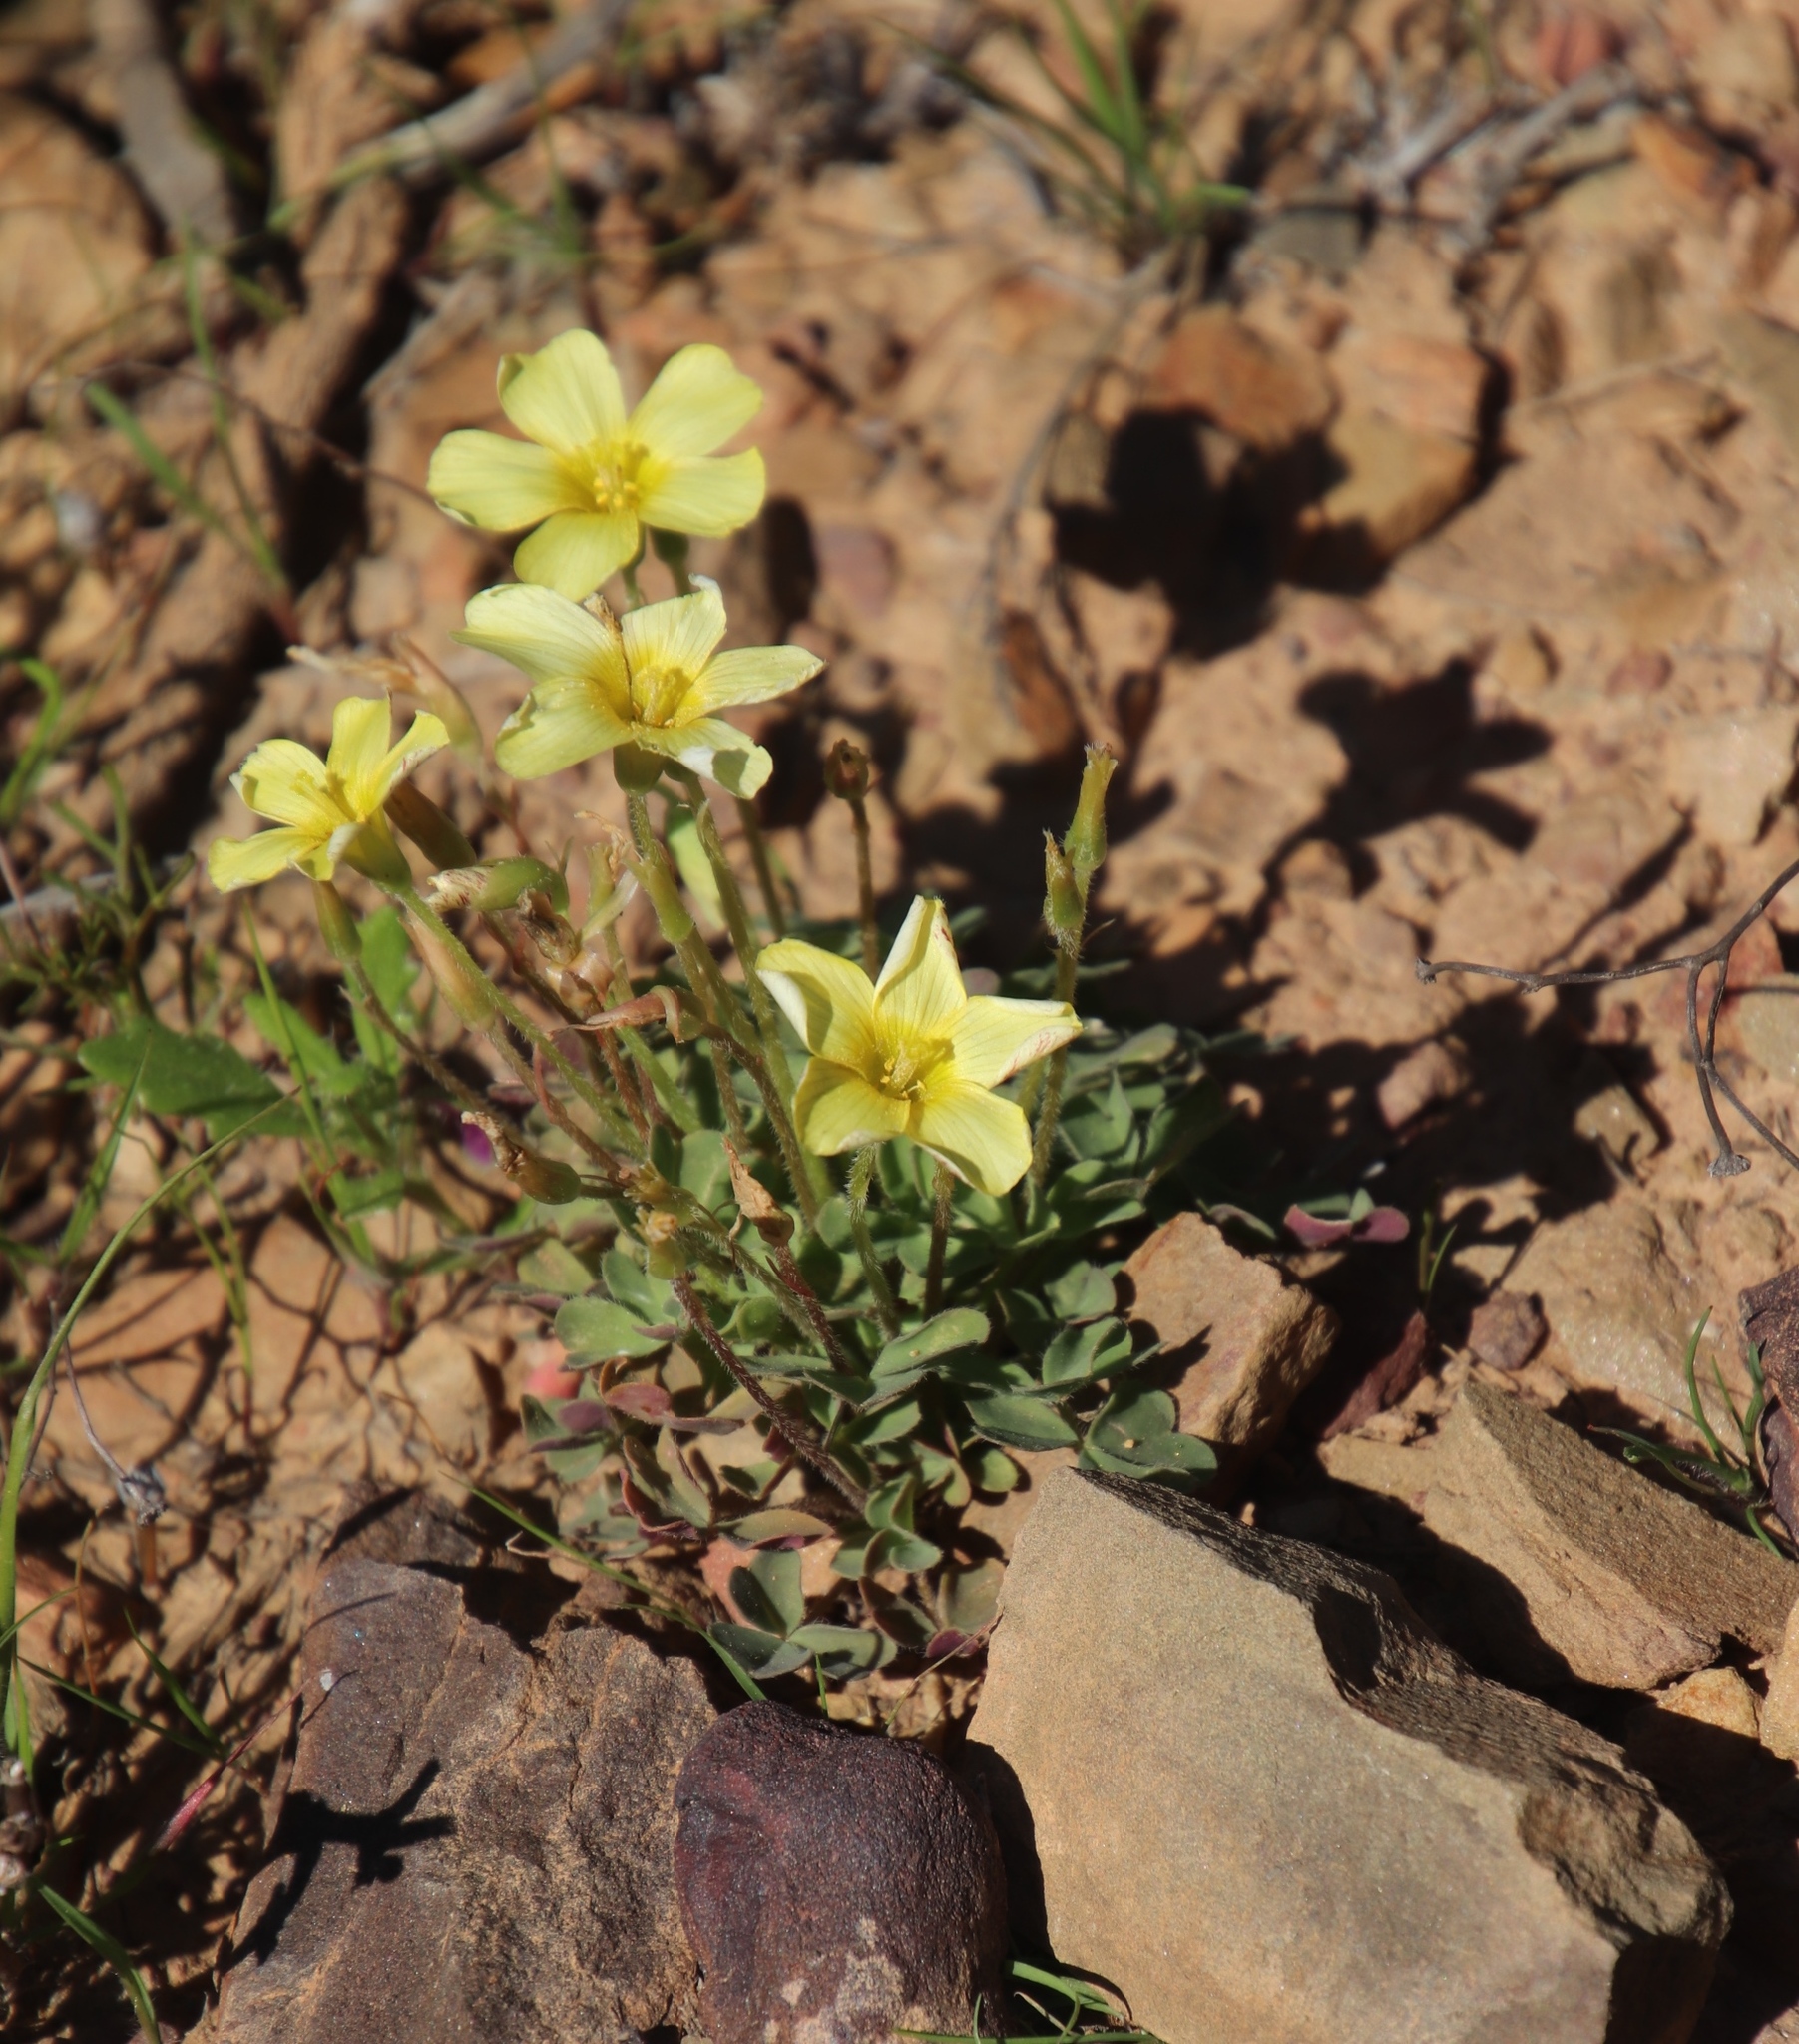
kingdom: Plantae
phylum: Tracheophyta
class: Magnoliopsida
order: Oxalidales
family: Oxalidaceae
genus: Oxalis
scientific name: Oxalis obtusa
